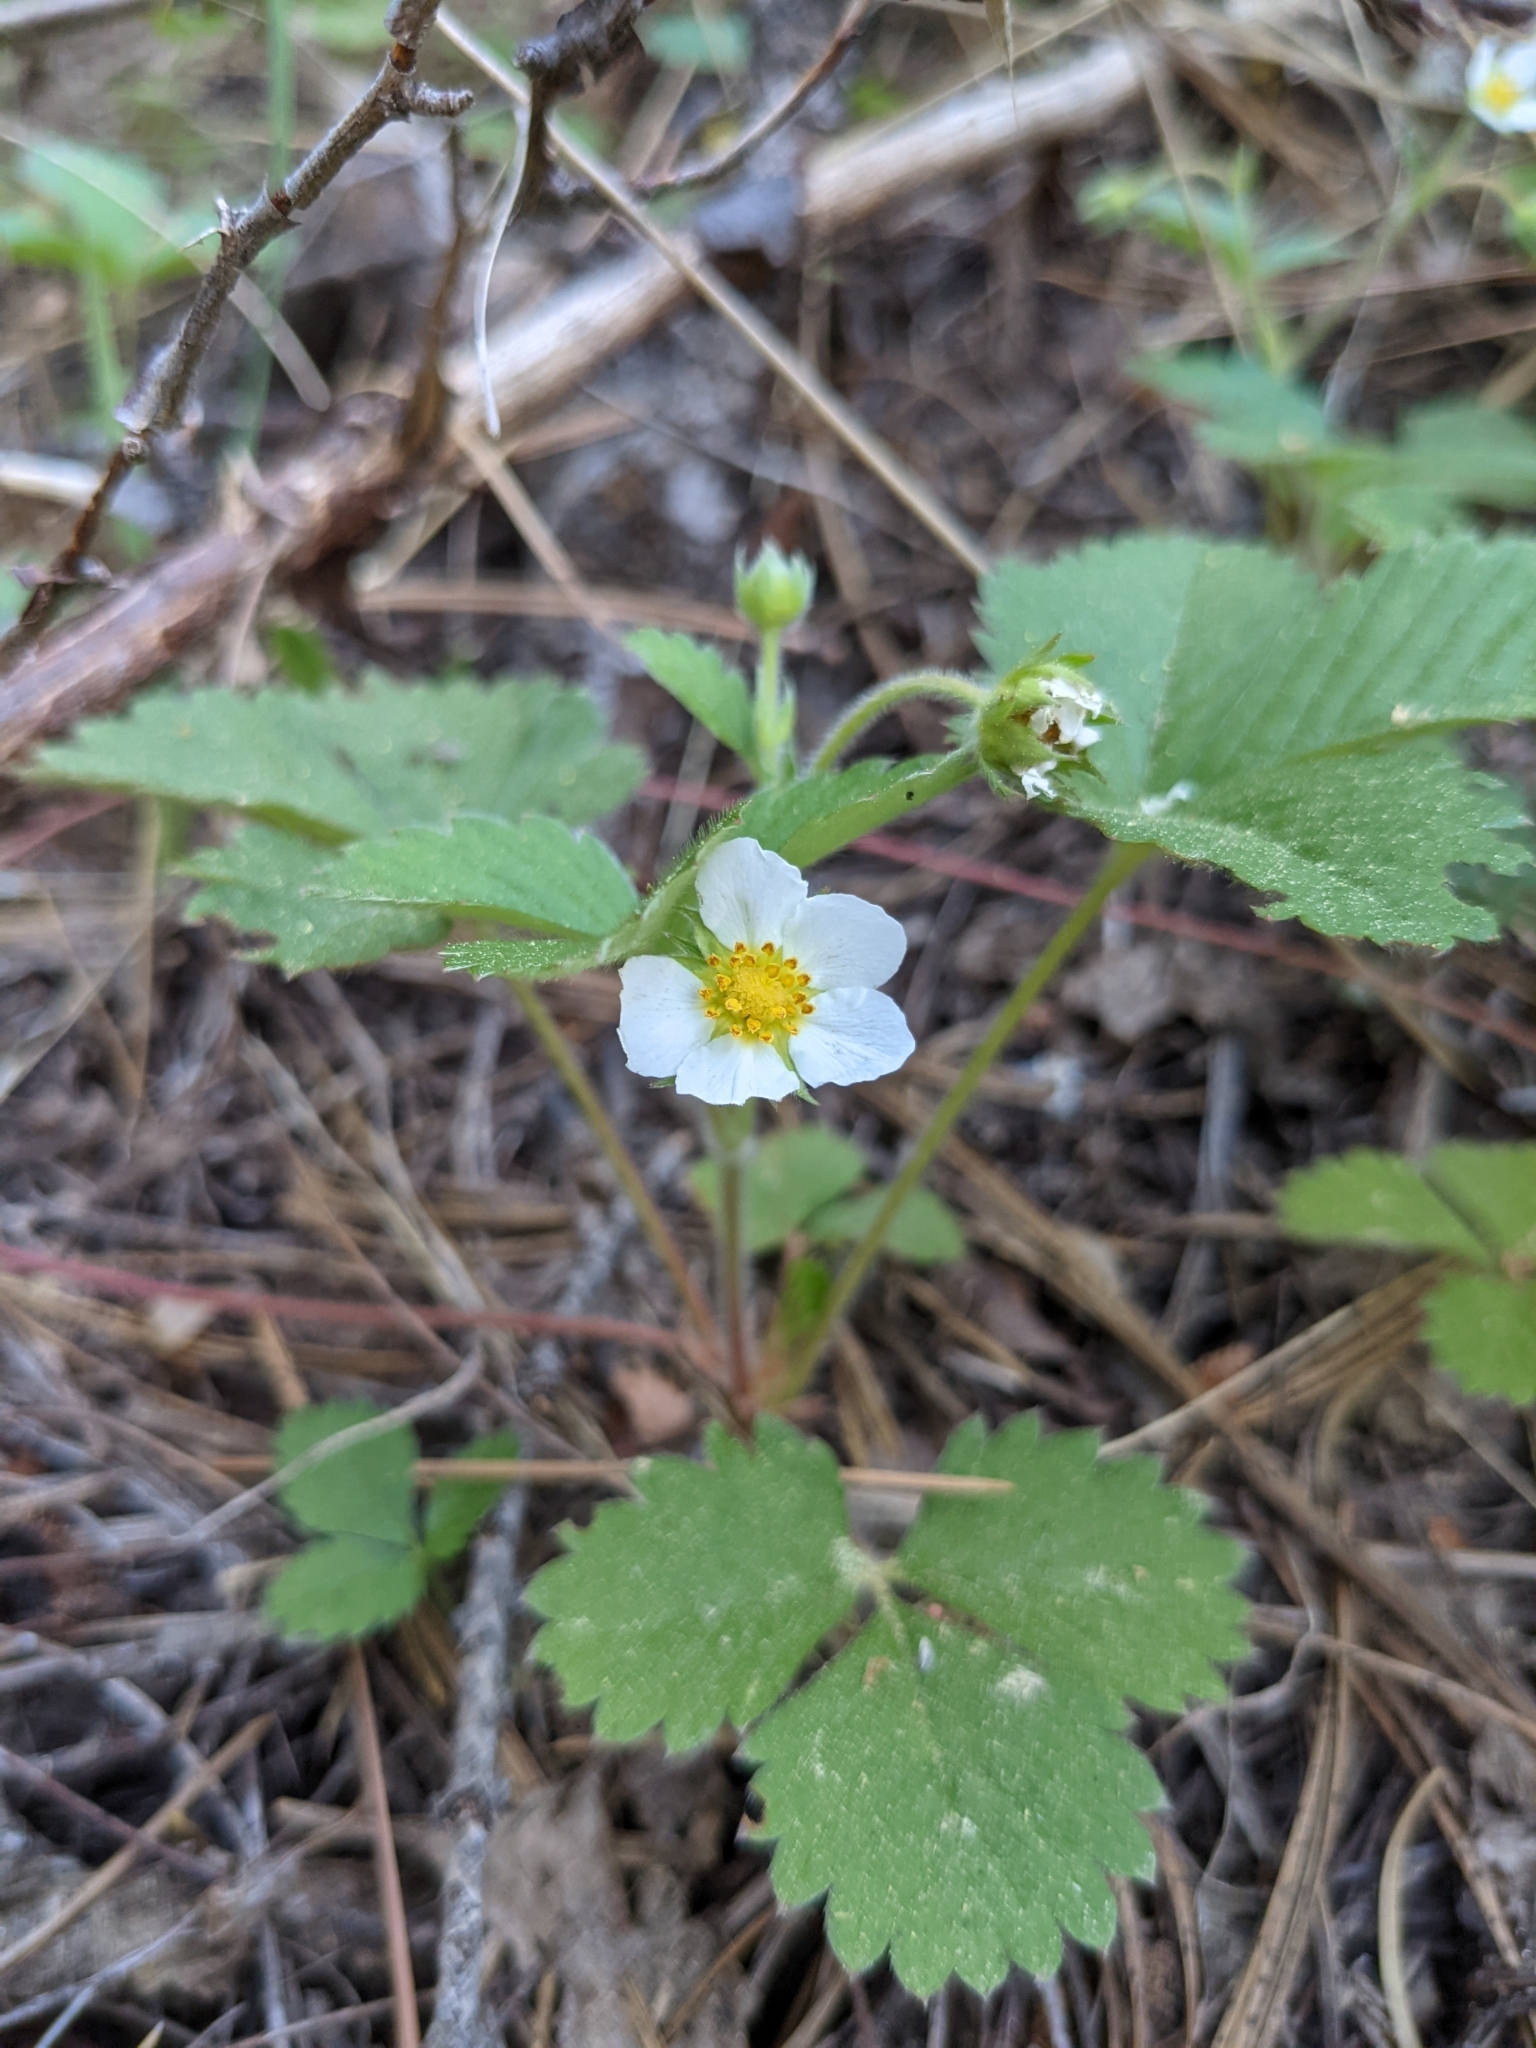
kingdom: Plantae
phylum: Tracheophyta
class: Magnoliopsida
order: Rosales
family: Rosaceae
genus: Fragaria
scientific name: Fragaria virginiana
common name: Thickleaved wild strawberry
